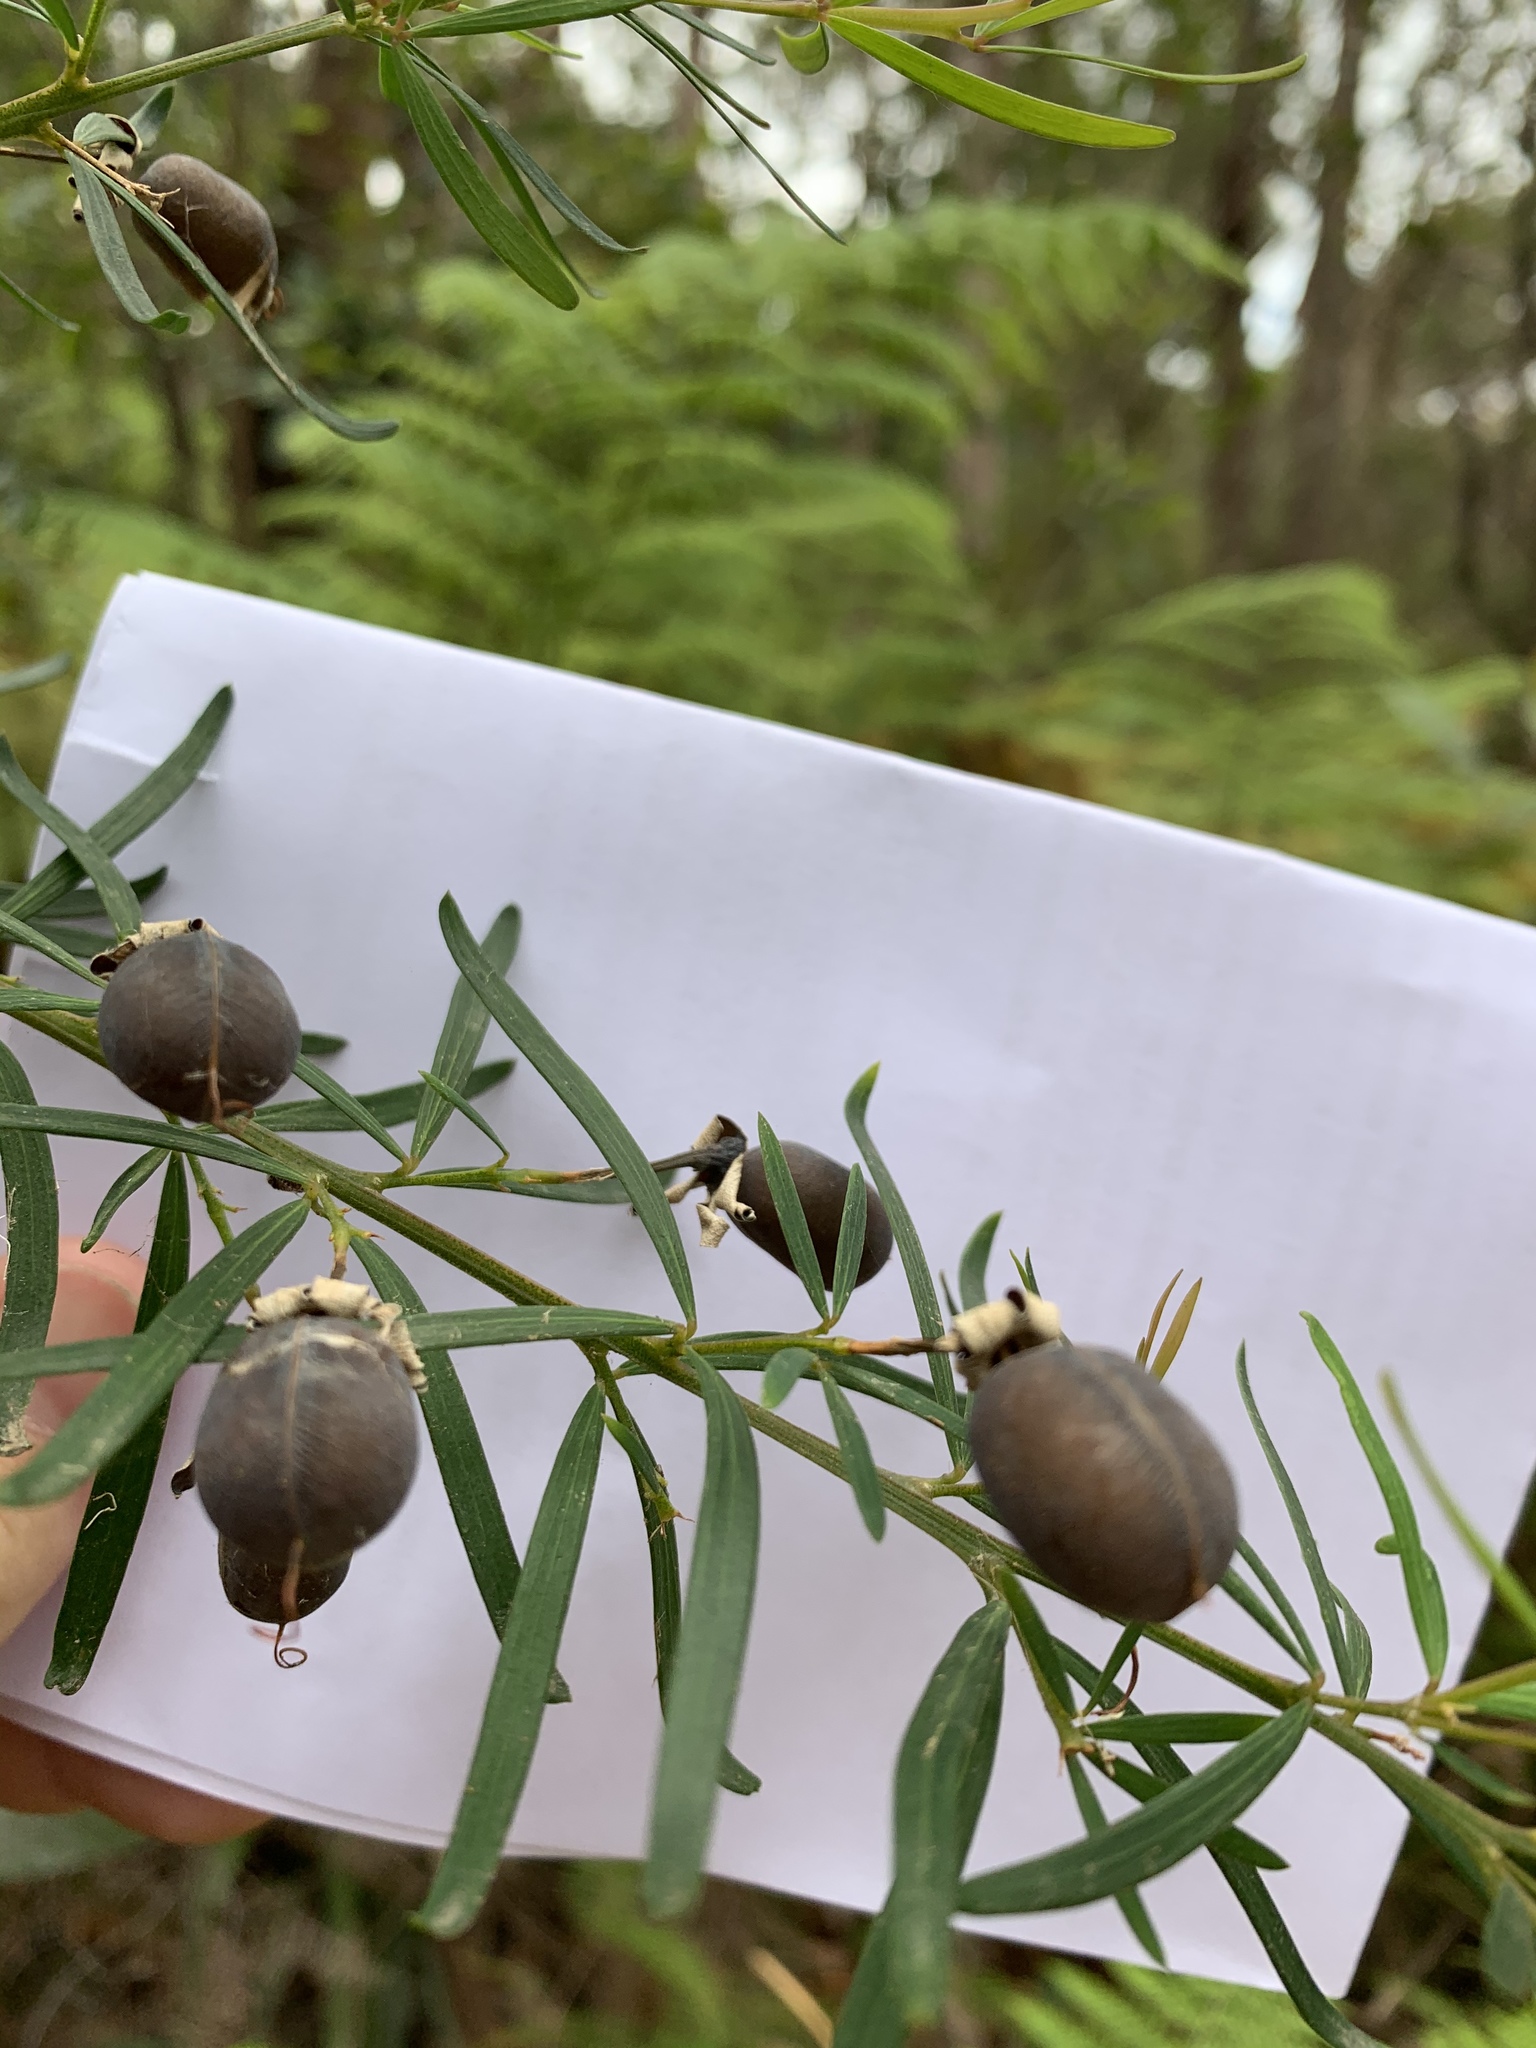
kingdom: Plantae
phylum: Tracheophyta
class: Magnoliopsida
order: Fabales
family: Fabaceae
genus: Gompholobium
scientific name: Gompholobium latifolium
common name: Broadleaf wedge-pea
